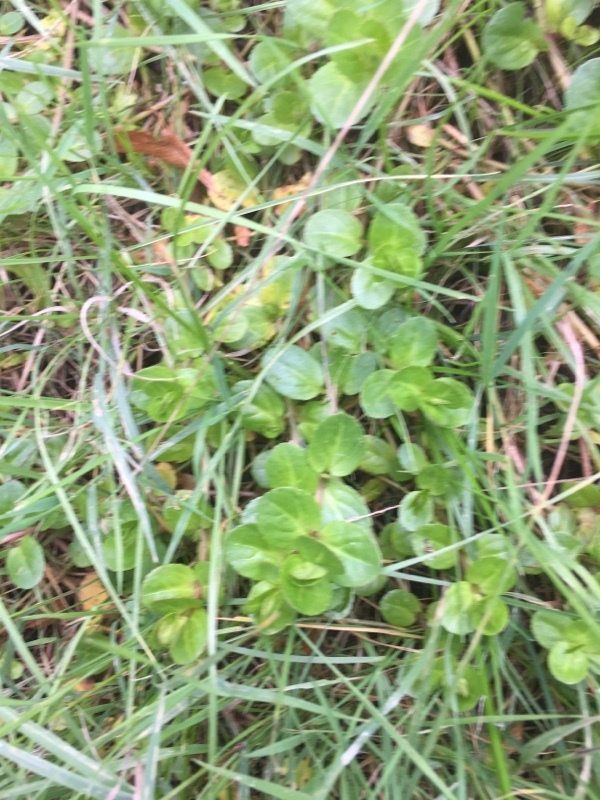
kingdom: Plantae
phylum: Tracheophyta
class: Magnoliopsida
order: Lamiales
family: Plantaginaceae
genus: Veronica
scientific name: Veronica beccabunga
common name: Brooklime
